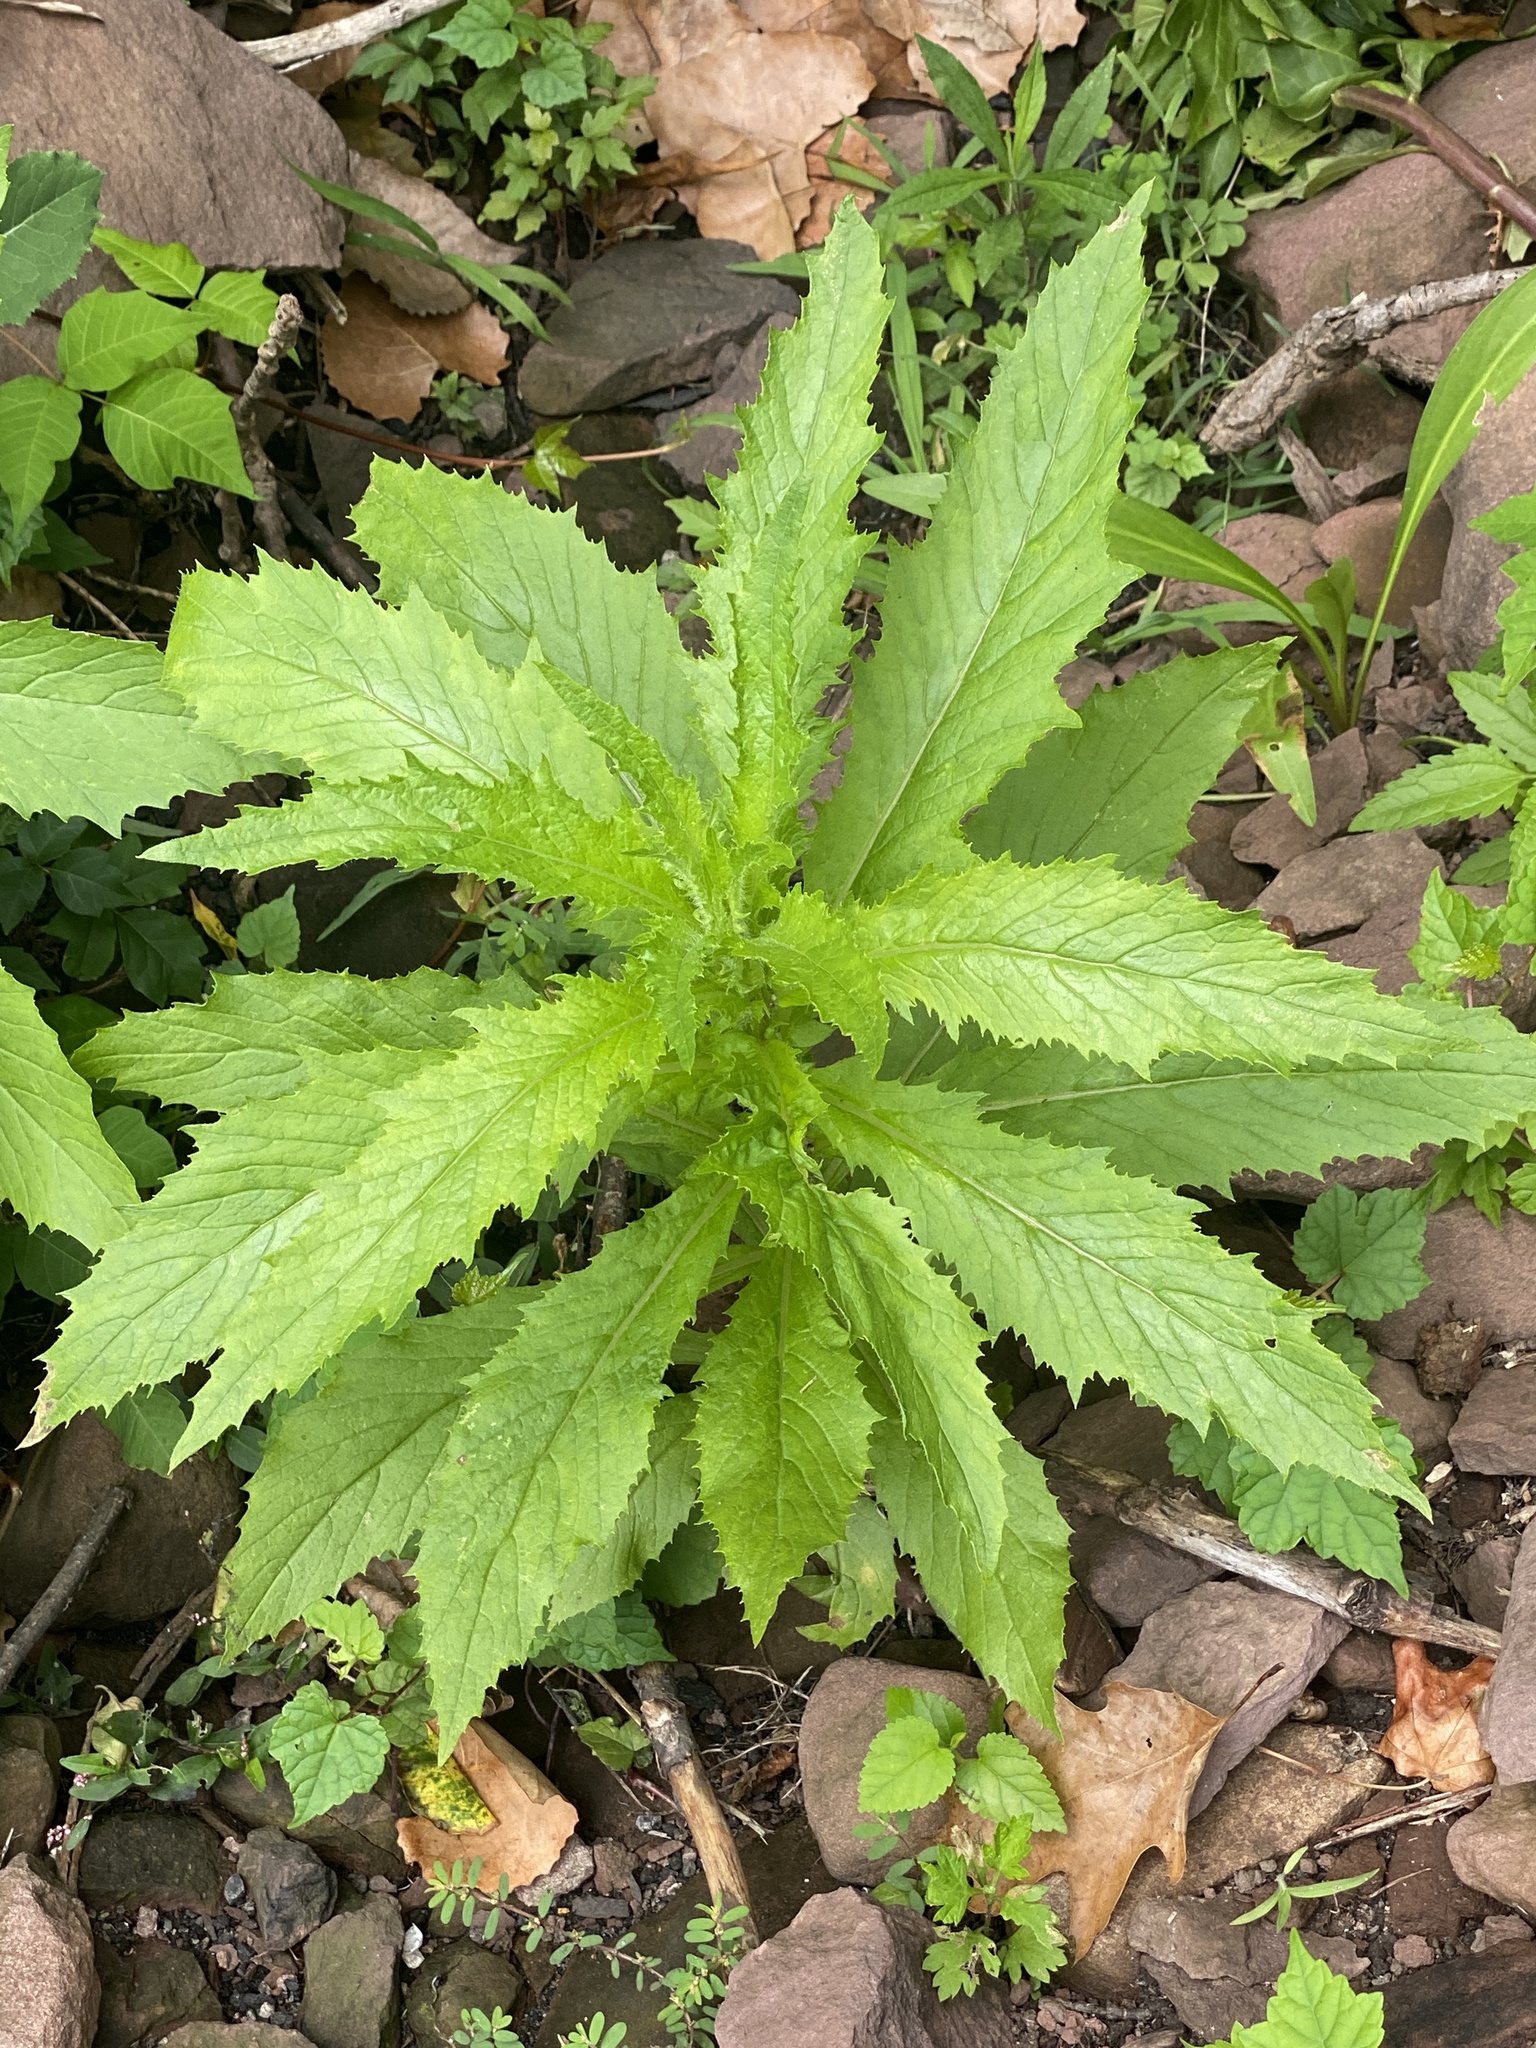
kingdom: Plantae
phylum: Tracheophyta
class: Magnoliopsida
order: Asterales
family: Asteraceae
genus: Erechtites
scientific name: Erechtites hieraciifolius
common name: American burnweed
